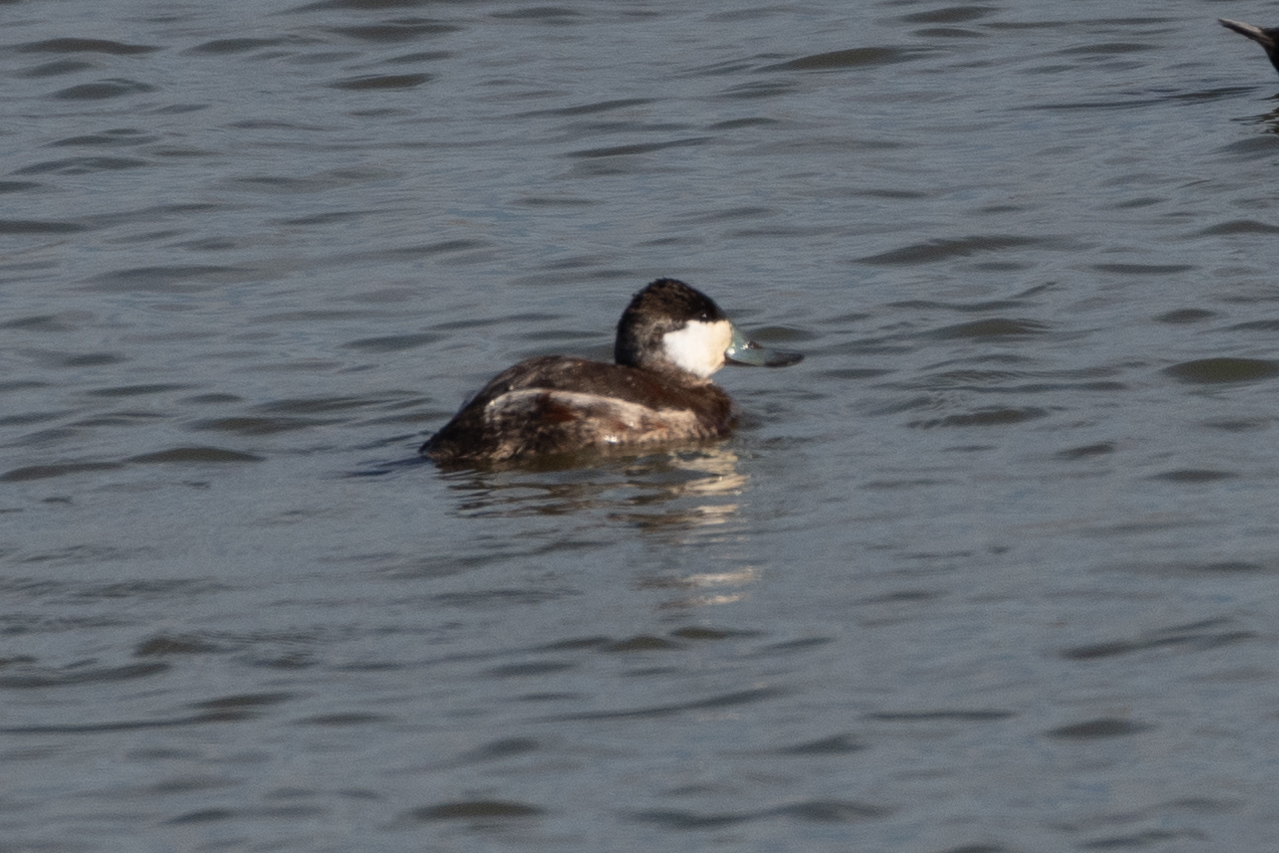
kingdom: Animalia
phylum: Chordata
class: Aves
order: Anseriformes
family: Anatidae
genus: Oxyura
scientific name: Oxyura jamaicensis
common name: Ruddy duck
